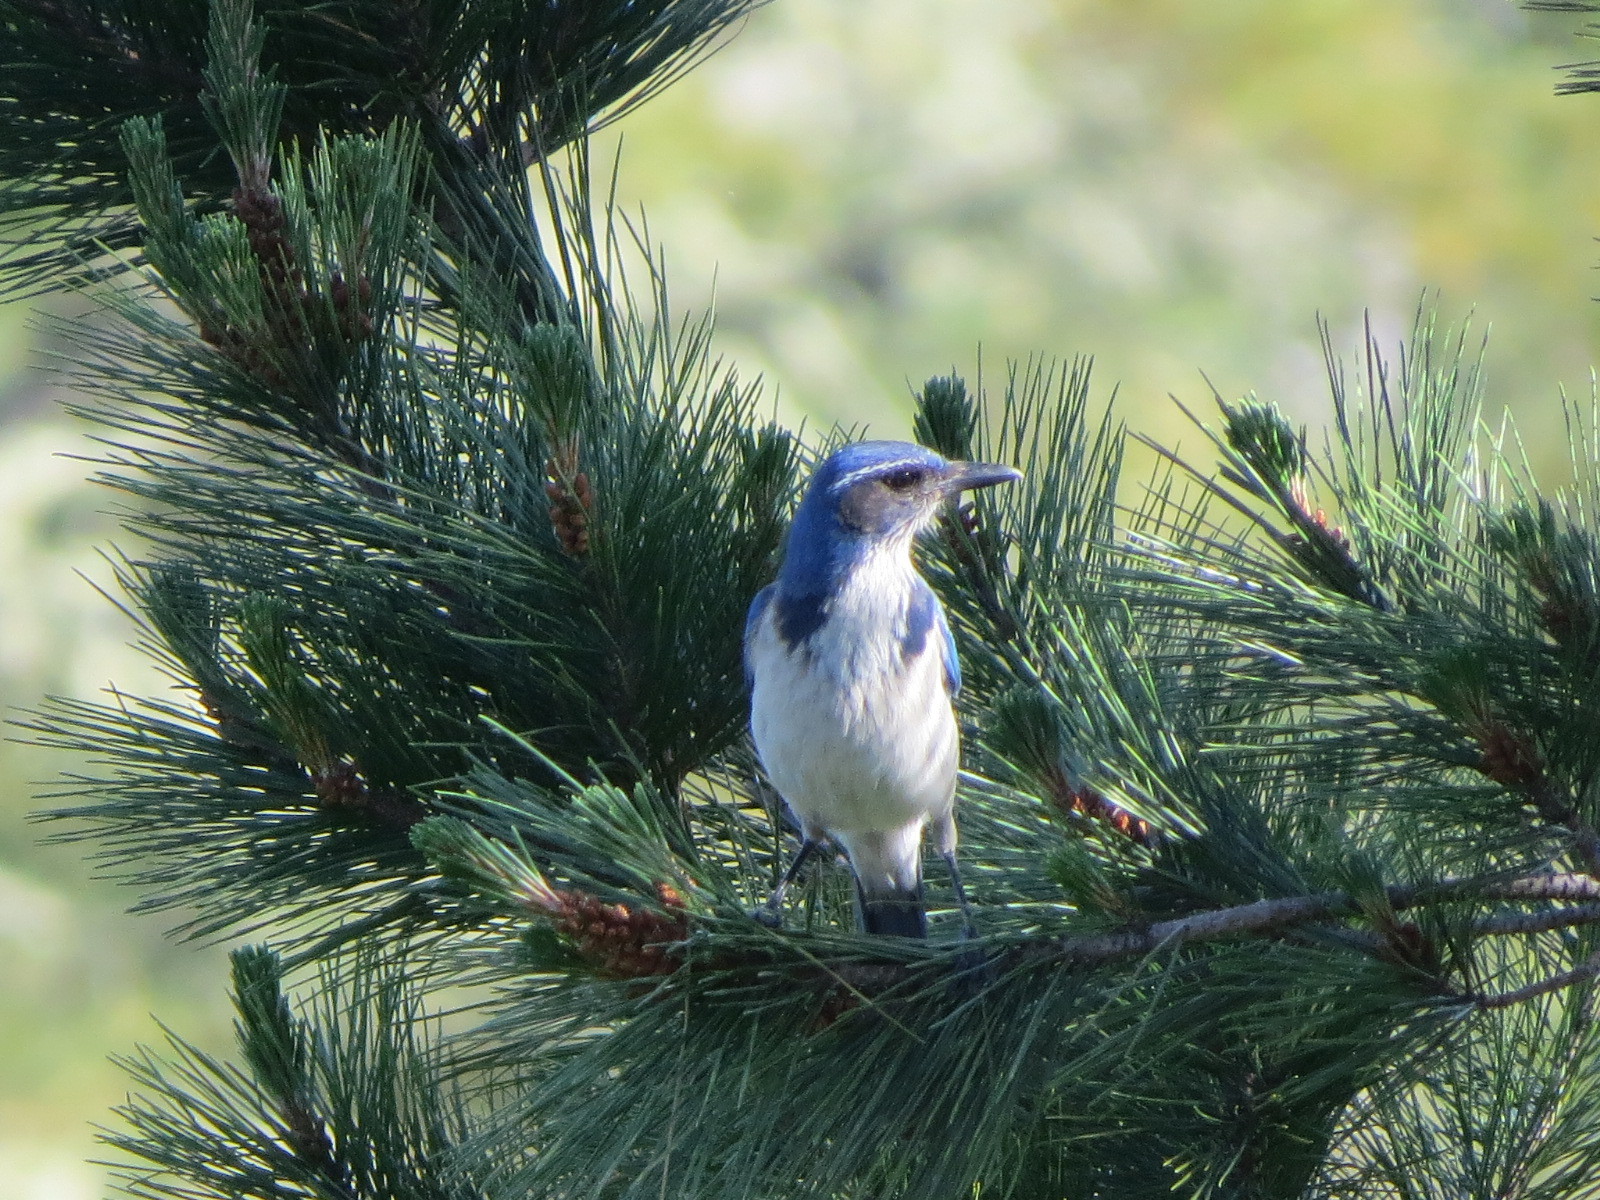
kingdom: Animalia
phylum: Chordata
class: Aves
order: Passeriformes
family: Corvidae
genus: Aphelocoma
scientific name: Aphelocoma californica
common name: California scrub-jay
